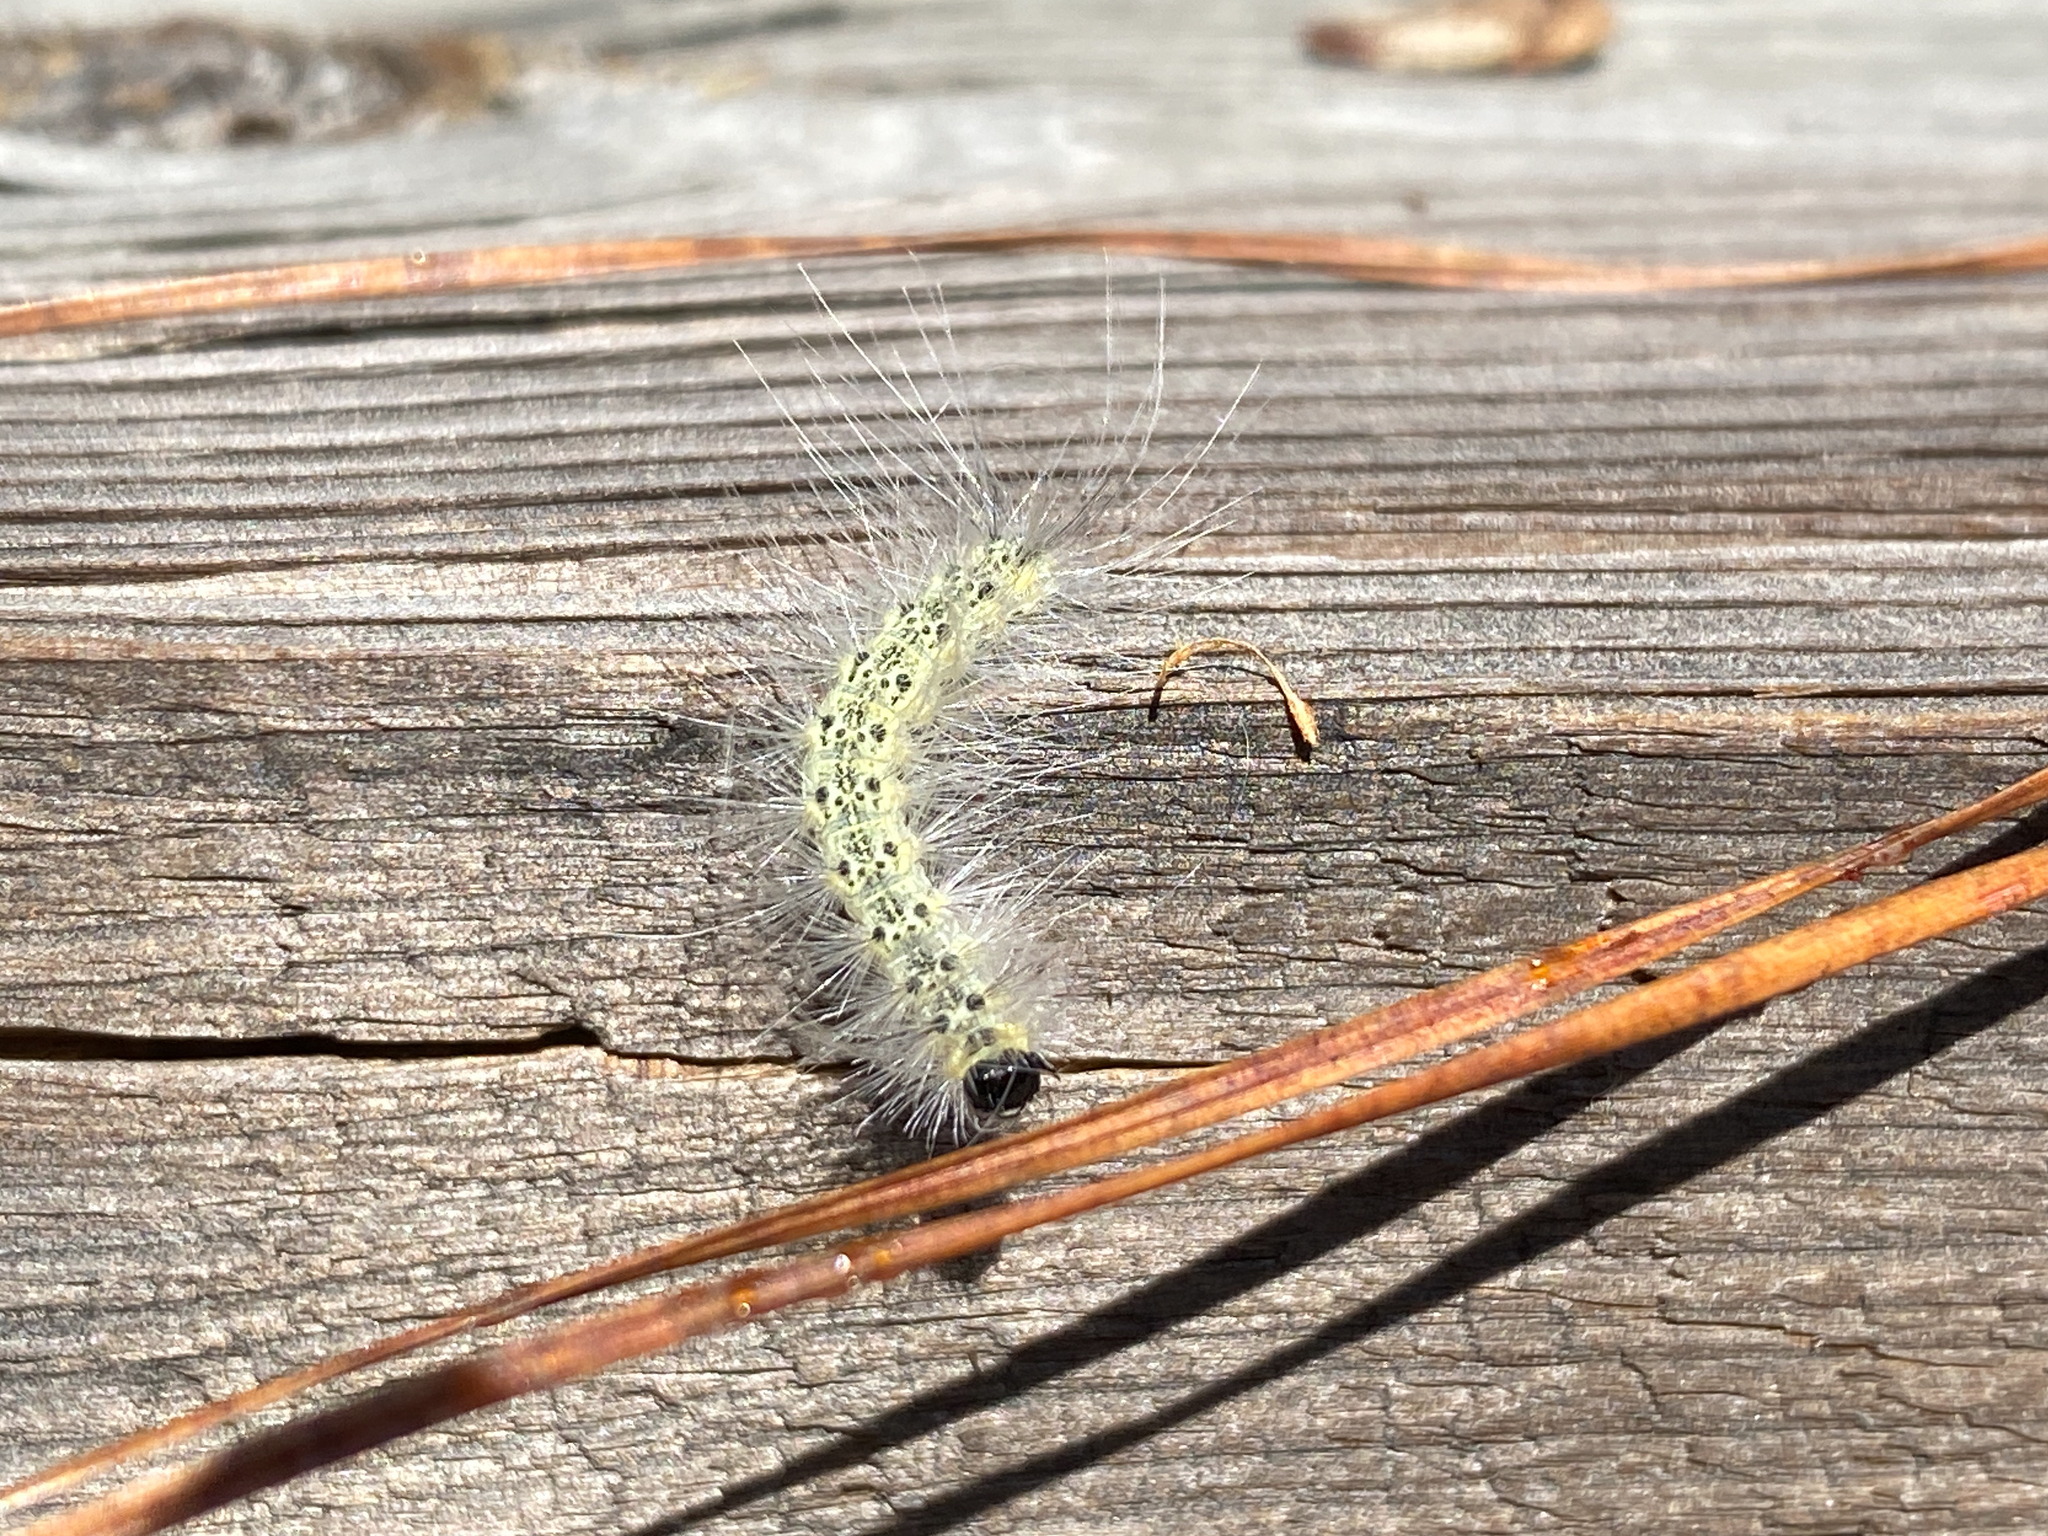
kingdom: Animalia
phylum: Arthropoda
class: Insecta
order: Lepidoptera
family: Erebidae
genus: Hyphantria
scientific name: Hyphantria cunea
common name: American white moth
